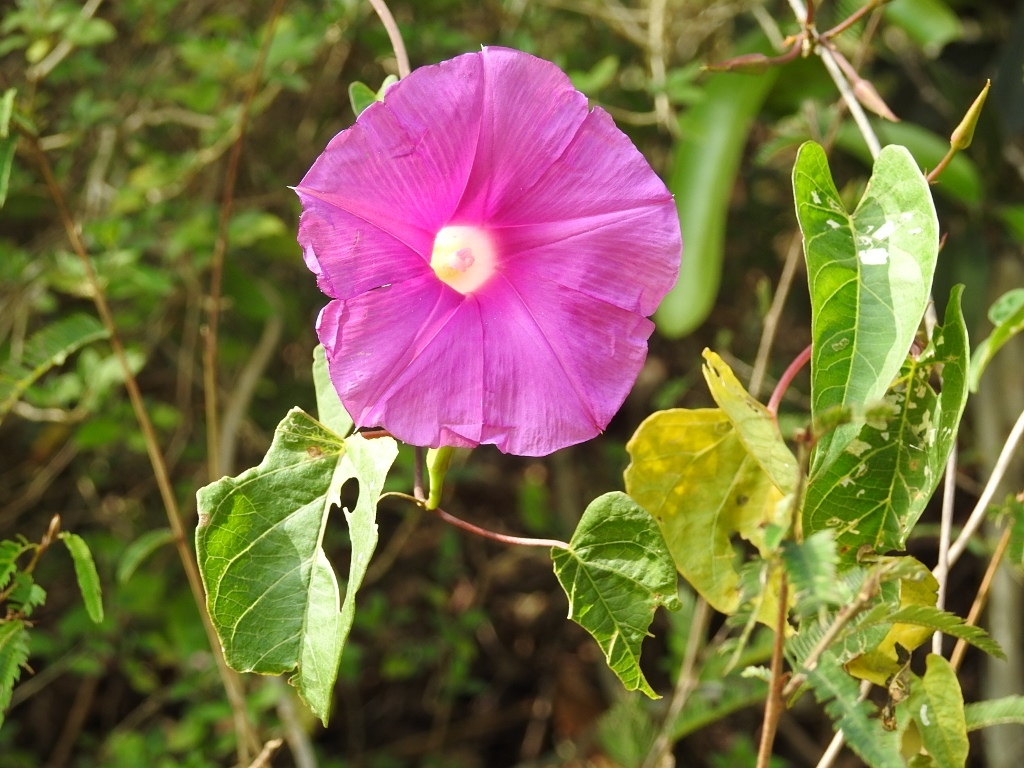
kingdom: Plantae
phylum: Tracheophyta
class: Magnoliopsida
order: Solanales
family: Convolvulaceae
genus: Ipomoea
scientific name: Ipomoea bernoulliana
